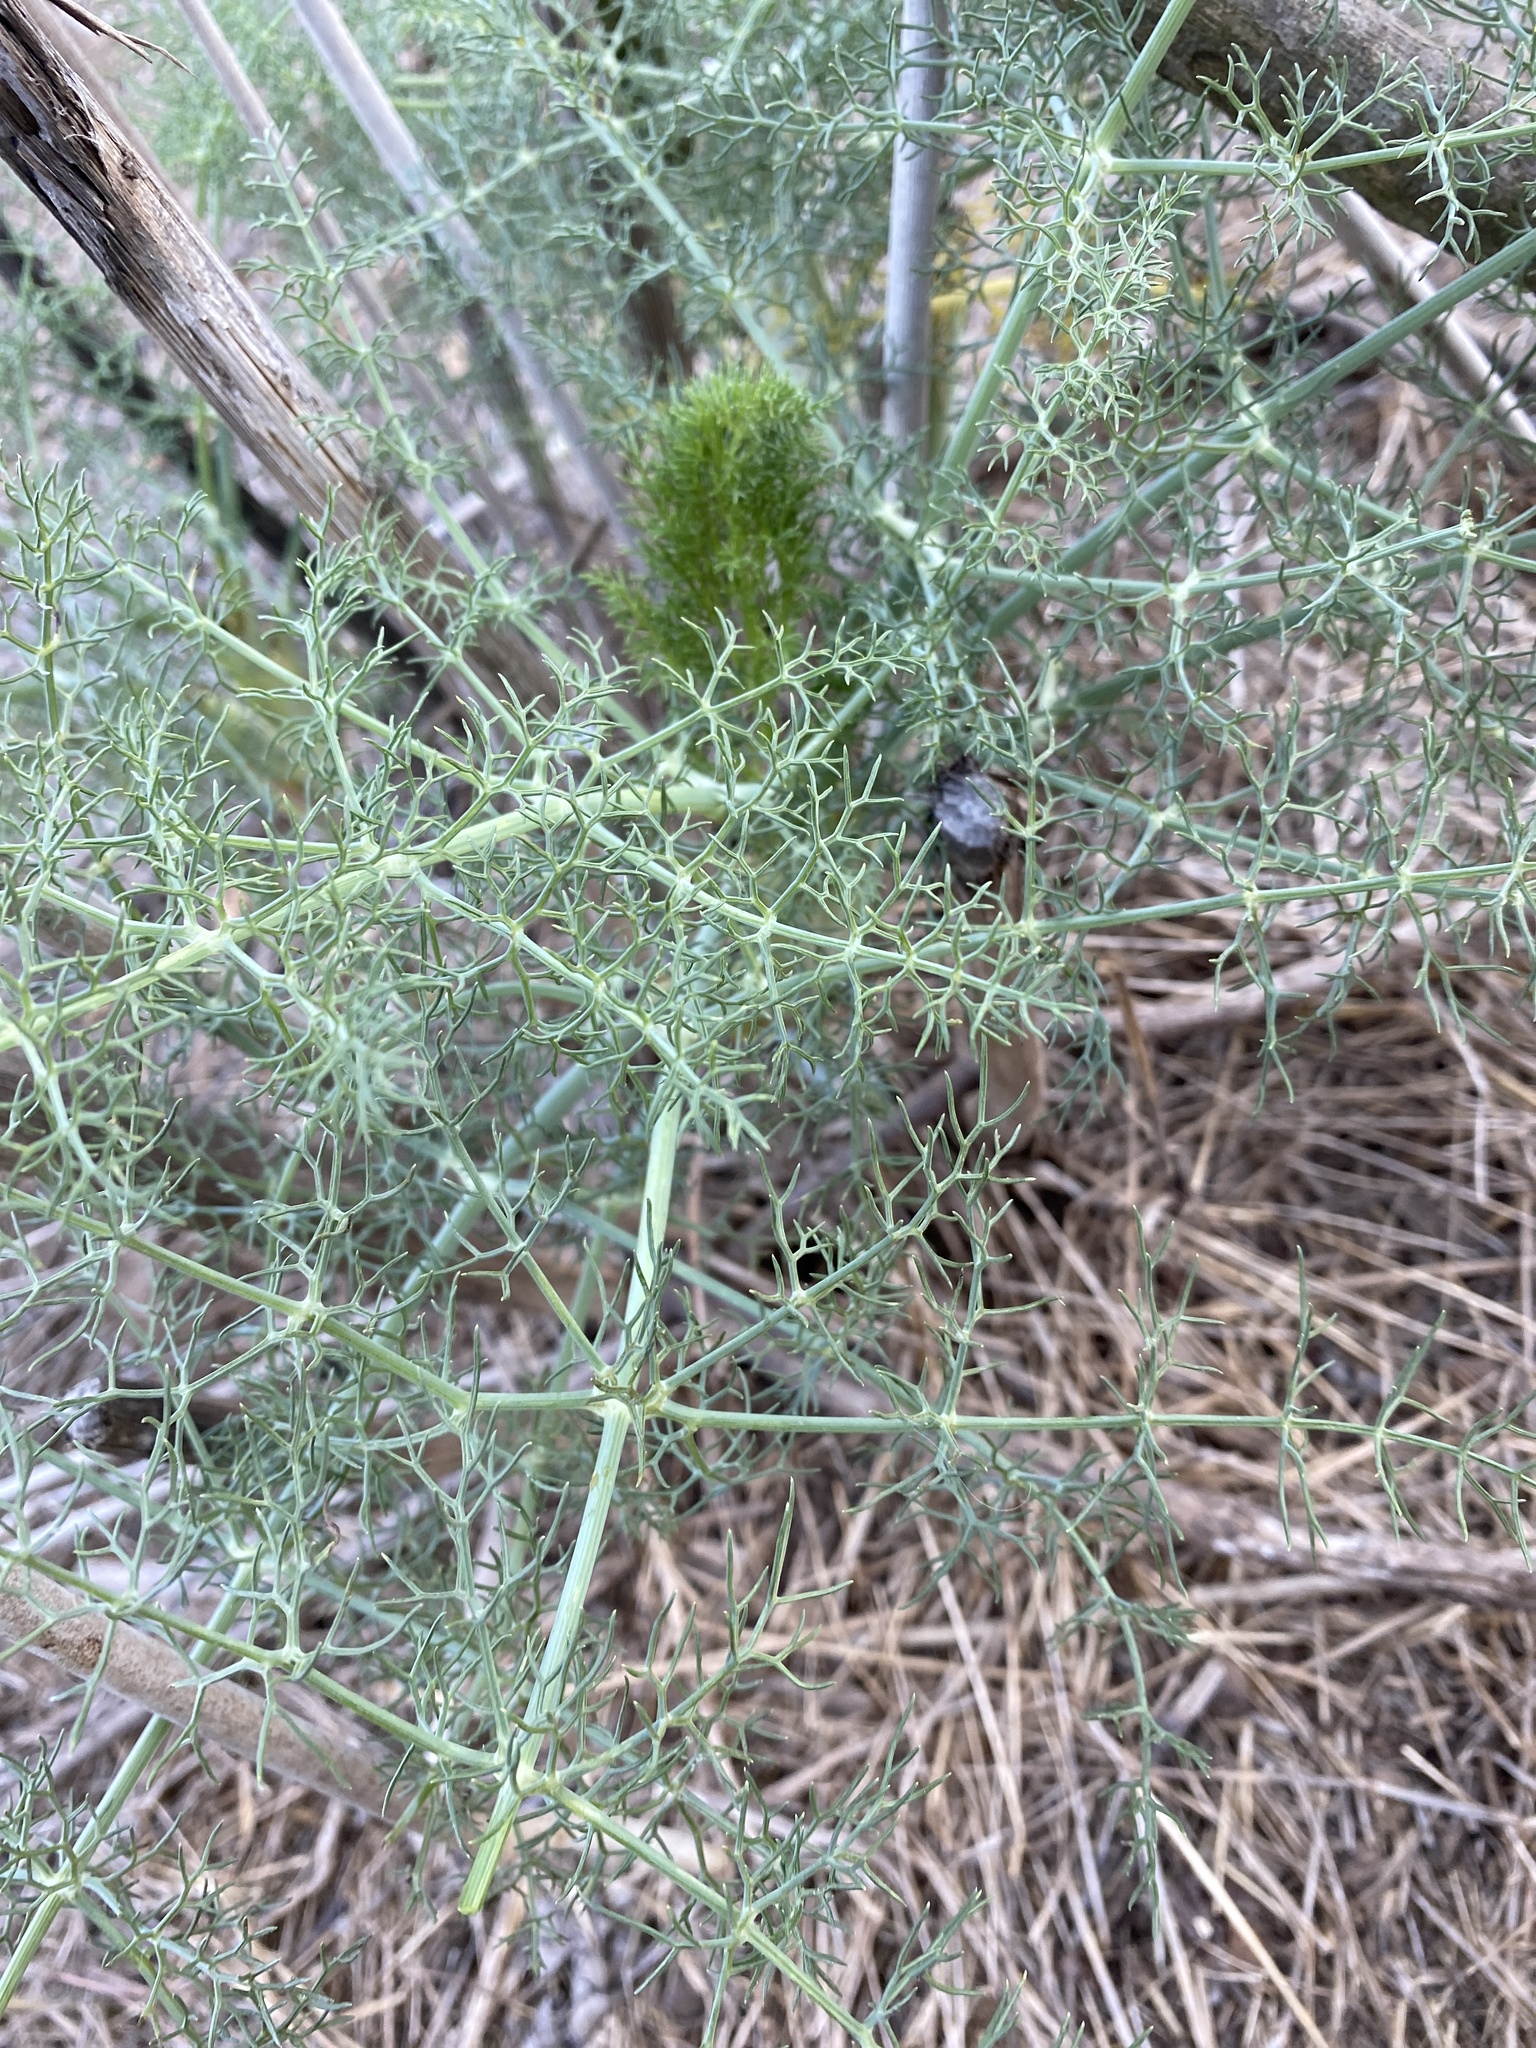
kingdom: Plantae
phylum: Tracheophyta
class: Magnoliopsida
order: Apiales
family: Apiaceae
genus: Foeniculum
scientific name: Foeniculum vulgare
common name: Fennel
